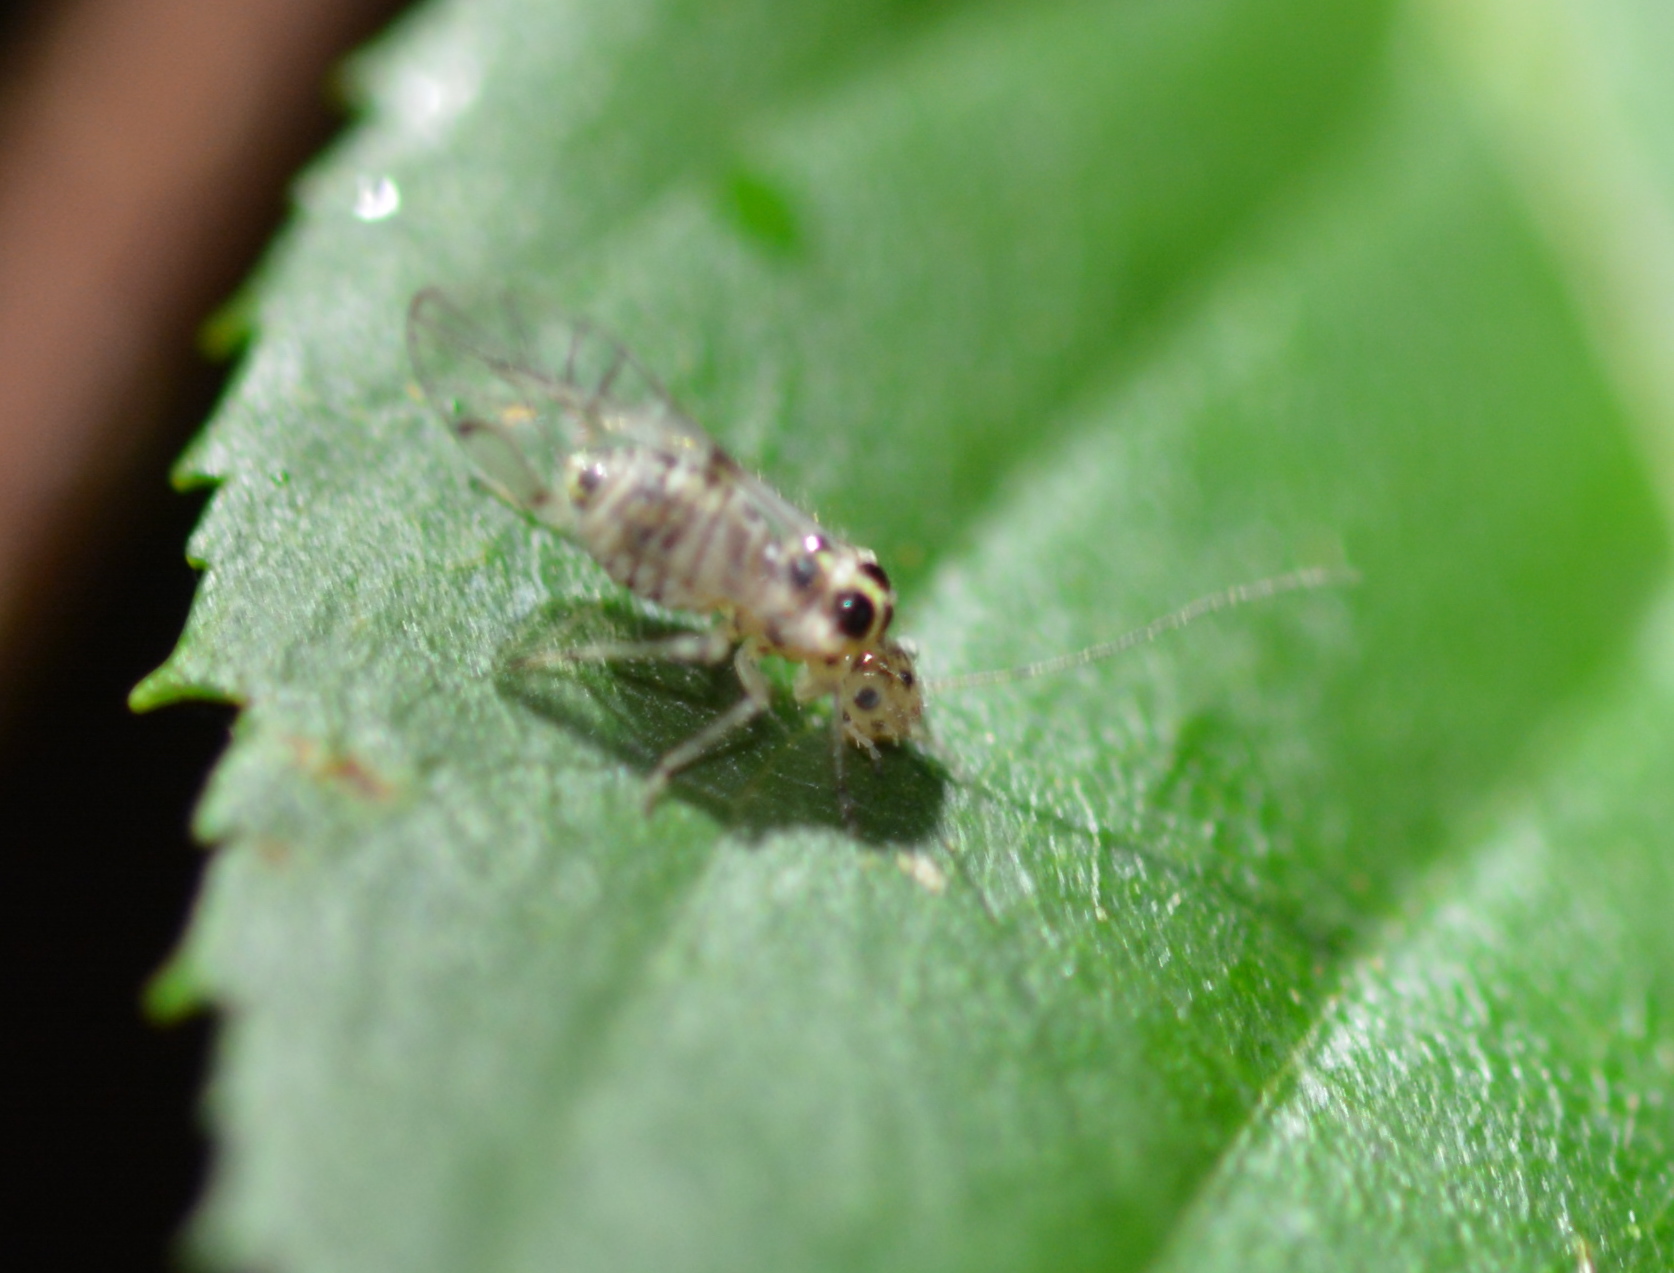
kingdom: Animalia
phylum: Arthropoda
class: Insecta
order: Psocodea
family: Dasydemellidae
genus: Teliapsocus
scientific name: Teliapsocus conterminus
